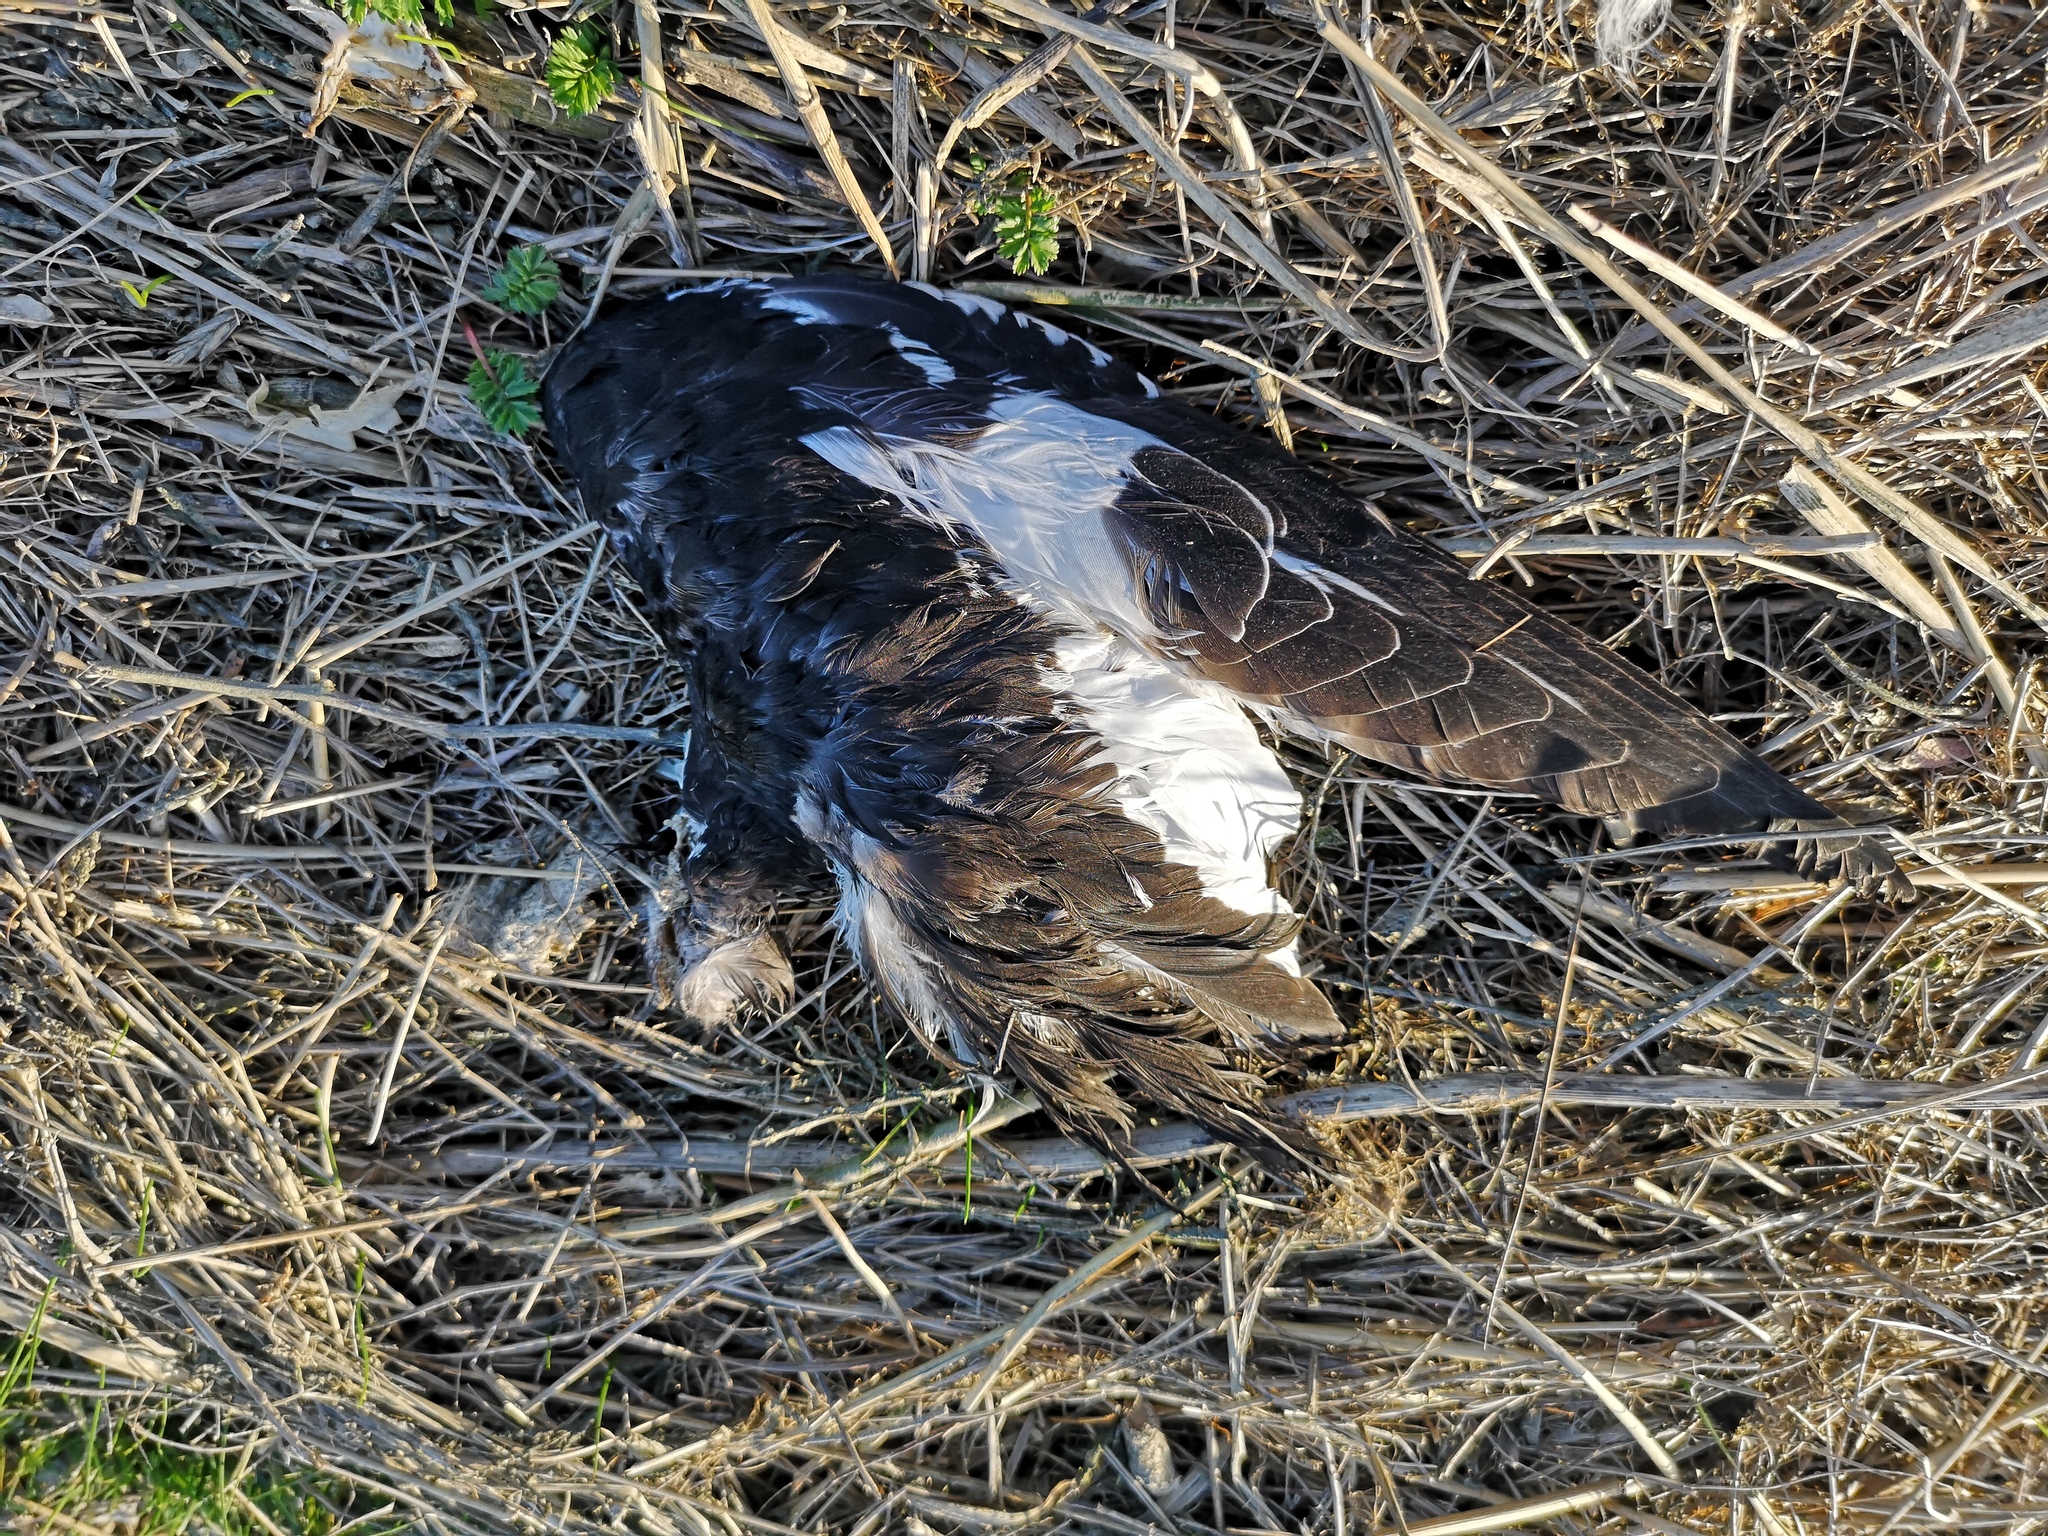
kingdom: Animalia
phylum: Chordata
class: Aves
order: Charadriiformes
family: Haematopodidae
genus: Haematopus
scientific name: Haematopus ostralegus
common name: Eurasian oystercatcher
